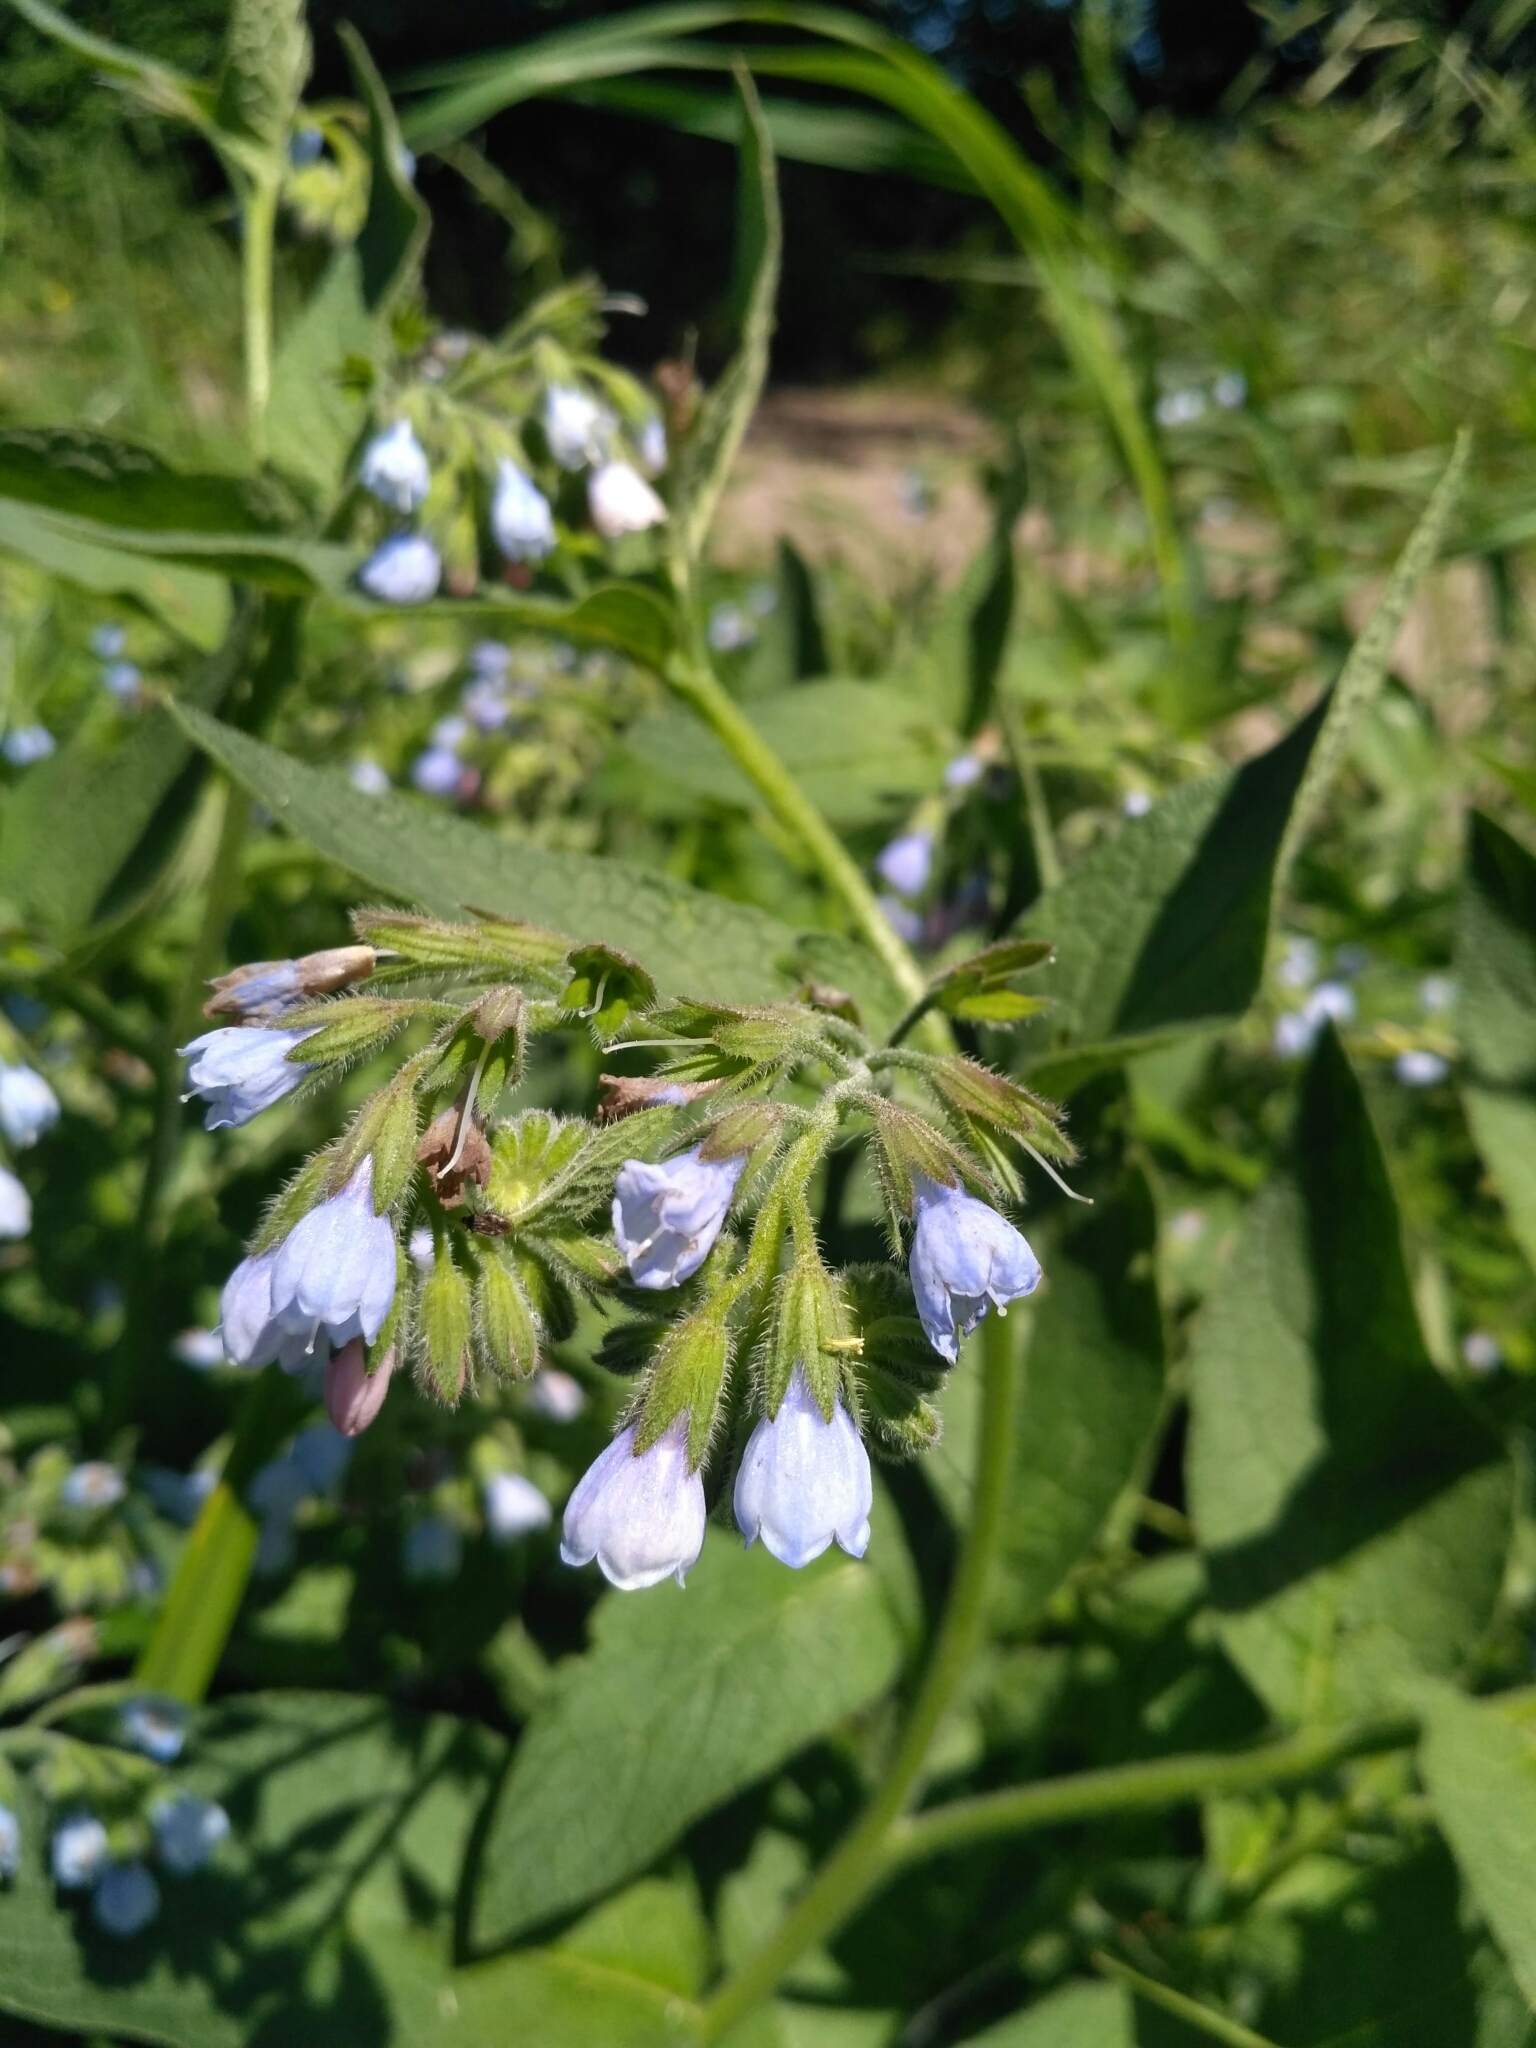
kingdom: Plantae
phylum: Tracheophyta
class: Magnoliopsida
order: Boraginales
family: Boraginaceae
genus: Symphytum
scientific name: Symphytum caucasicum
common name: Caucasian comfrey
